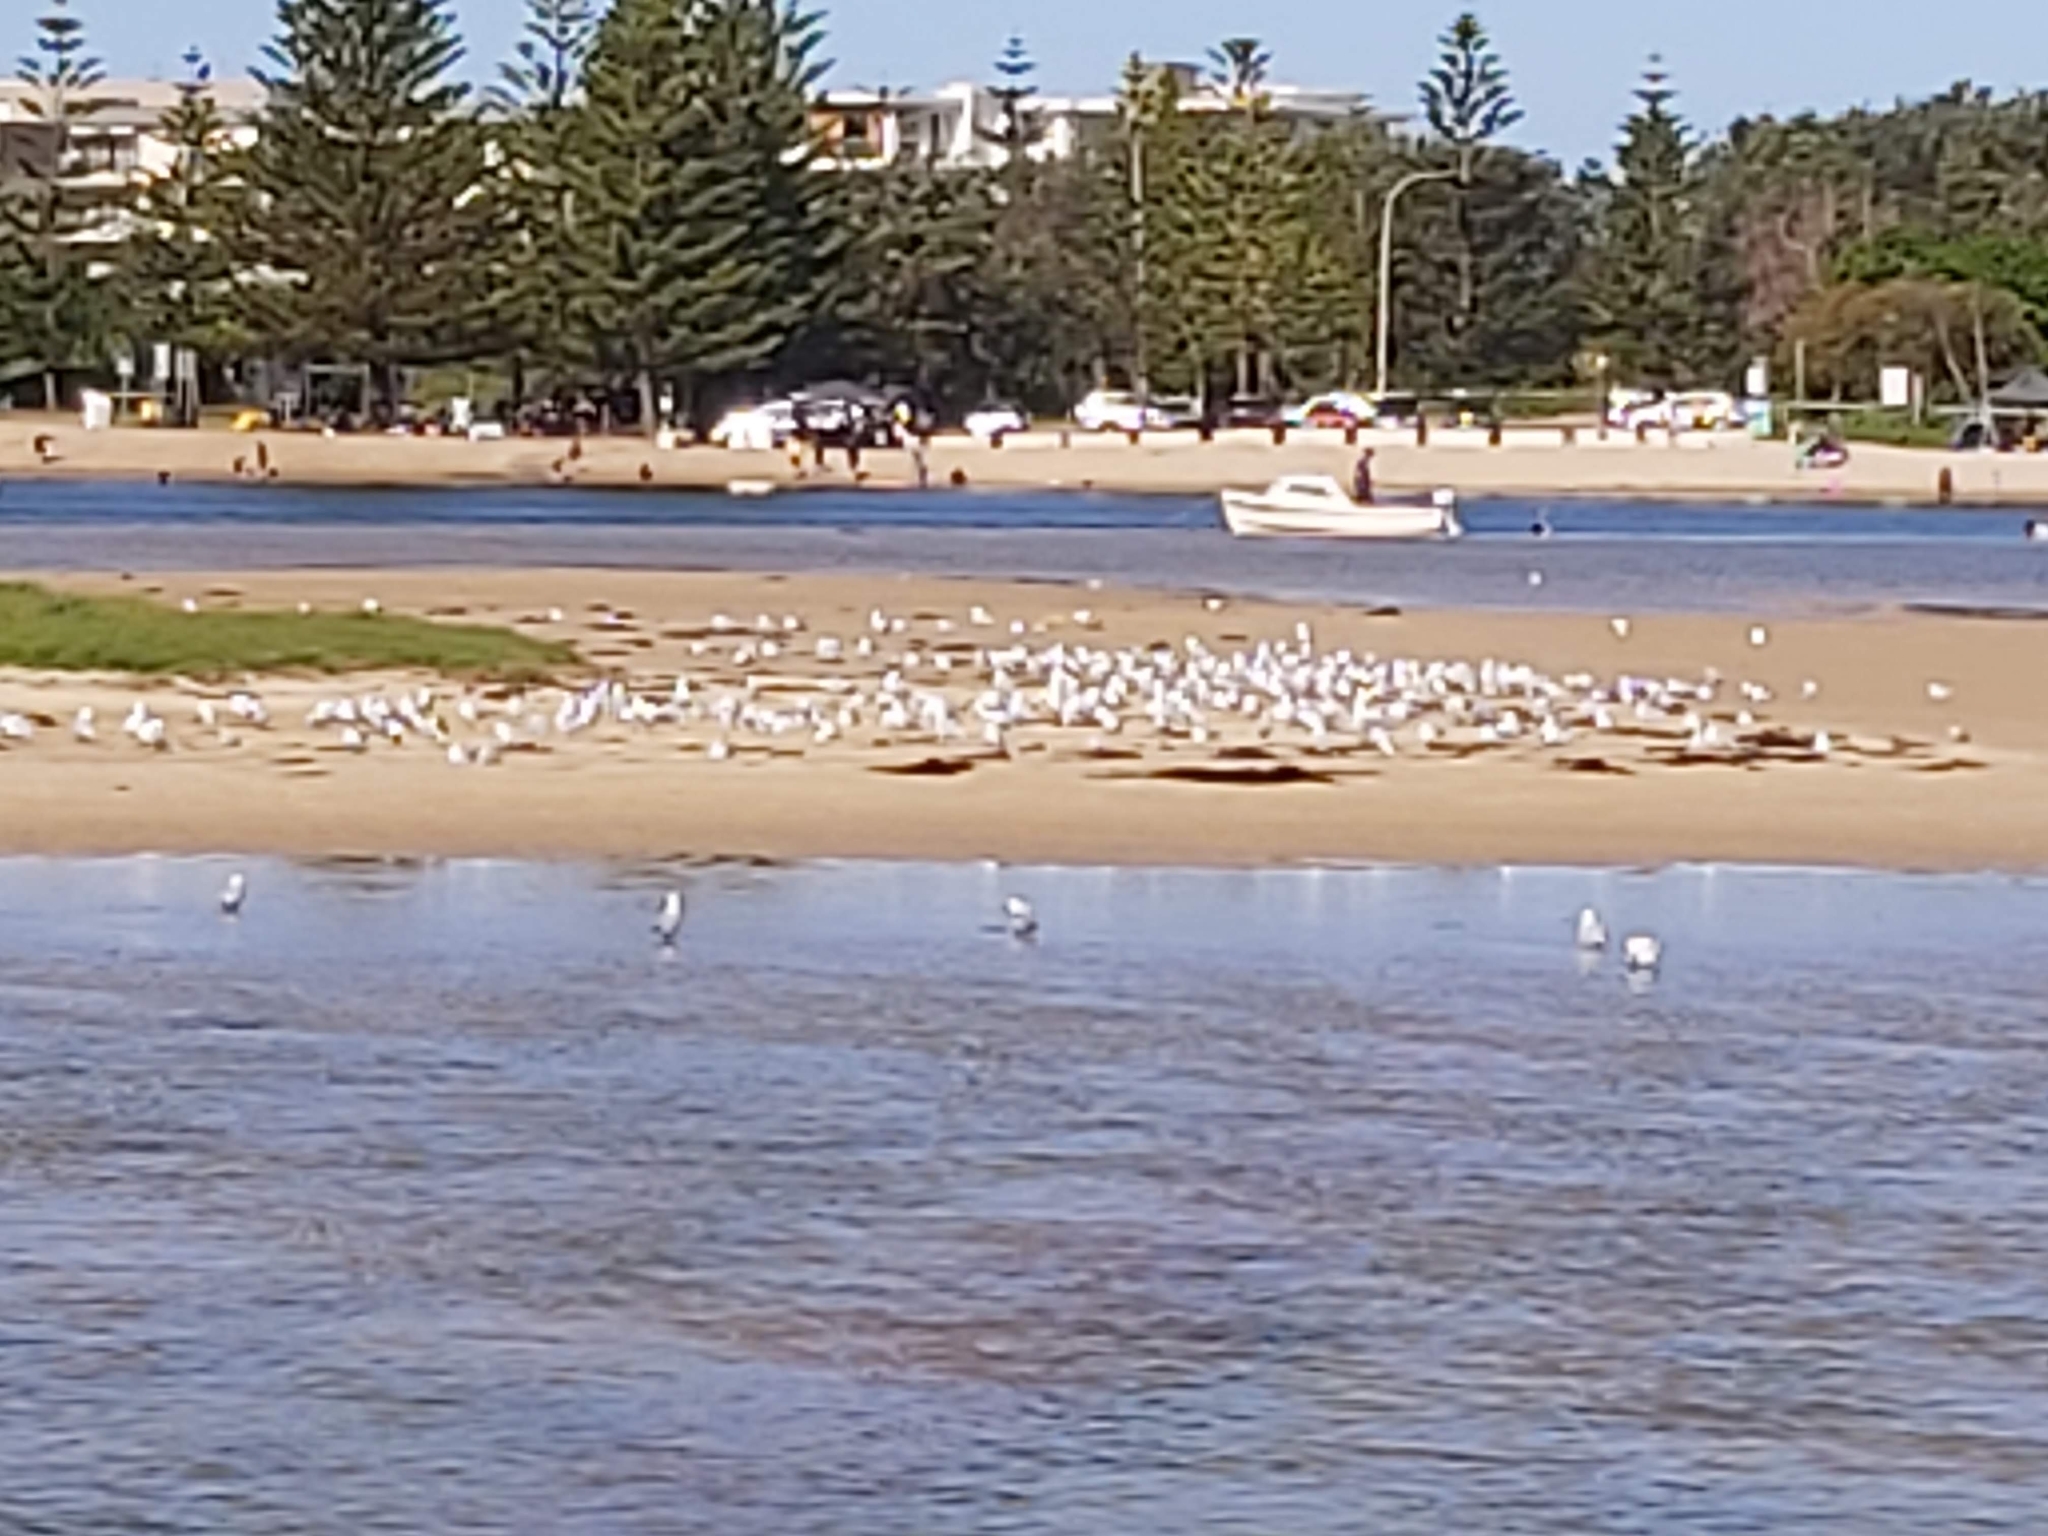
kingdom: Animalia
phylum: Chordata
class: Aves
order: Charadriiformes
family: Laridae
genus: Chroicocephalus
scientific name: Chroicocephalus novaehollandiae
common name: Silver gull
